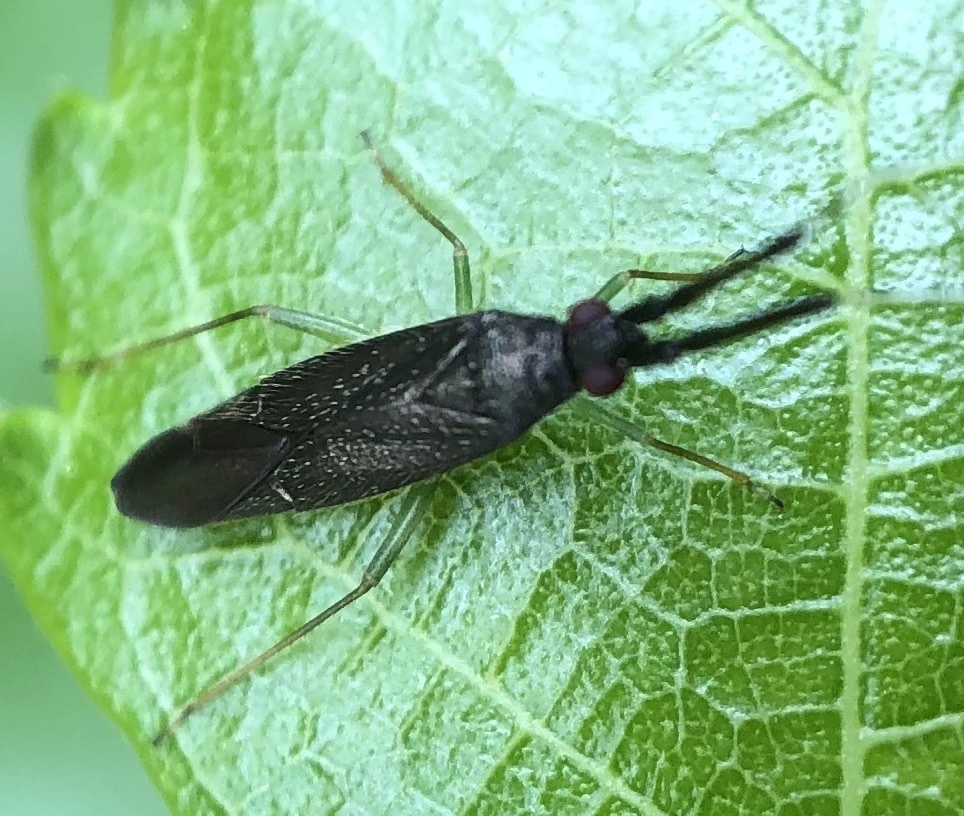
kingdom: Animalia
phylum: Arthropoda
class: Insecta
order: Hemiptera
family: Miridae
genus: Heterotoma
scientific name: Heterotoma planicornis
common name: Plant bug
